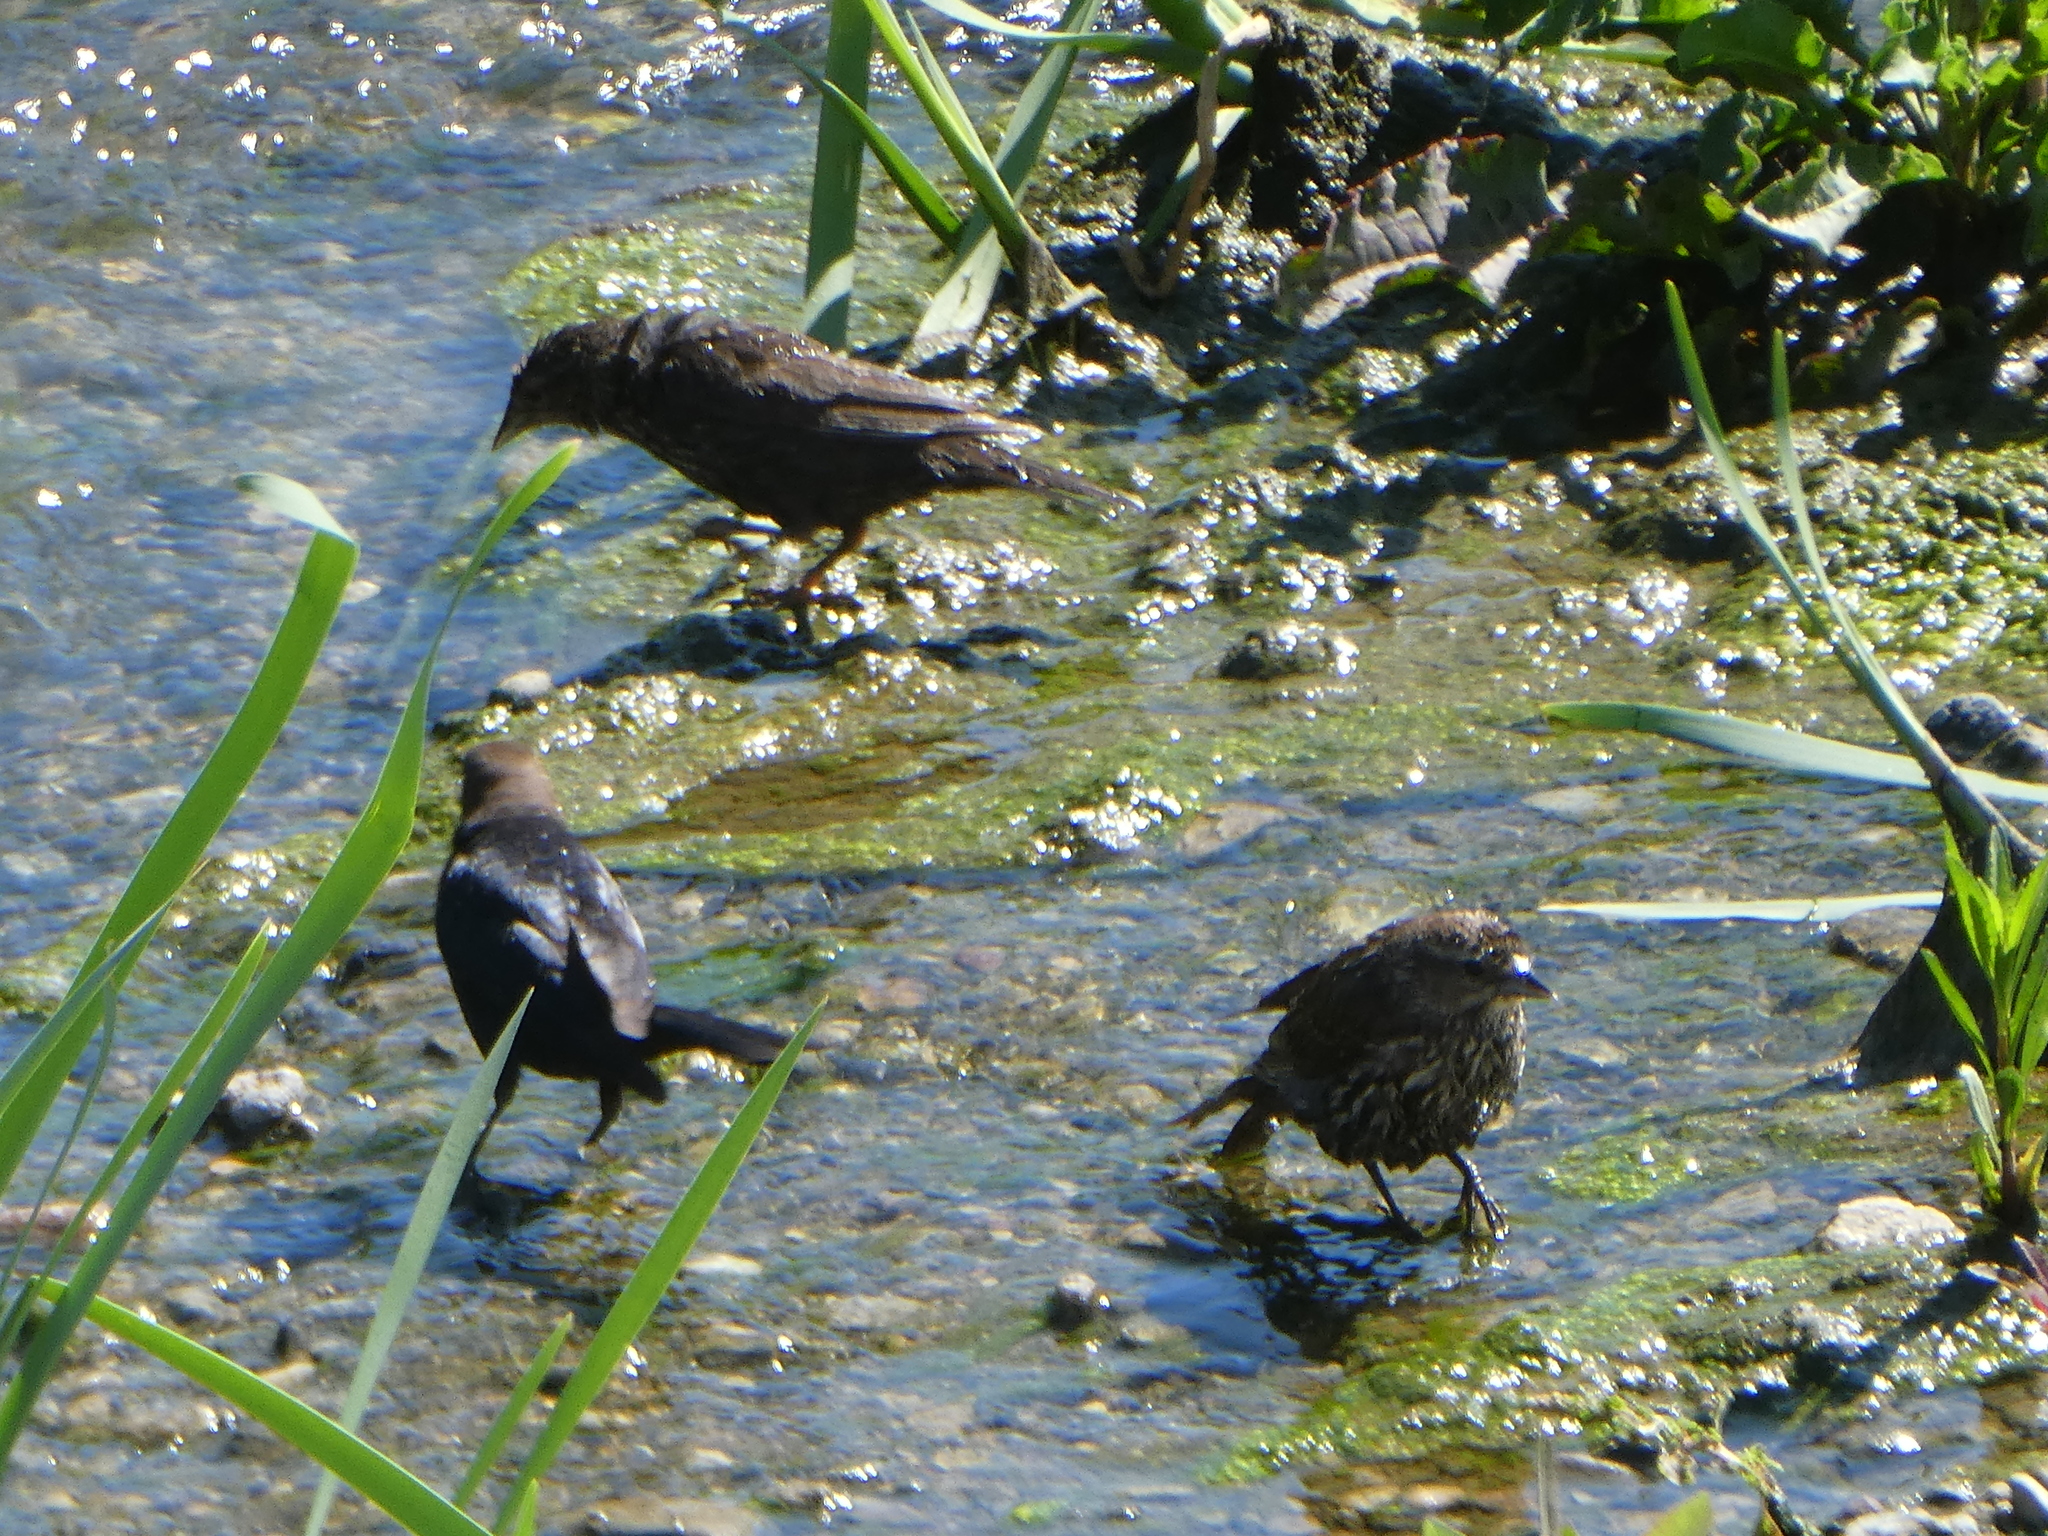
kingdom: Animalia
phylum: Chordata
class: Aves
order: Passeriformes
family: Icteridae
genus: Molothrus
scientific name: Molothrus ater
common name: Brown-headed cowbird
